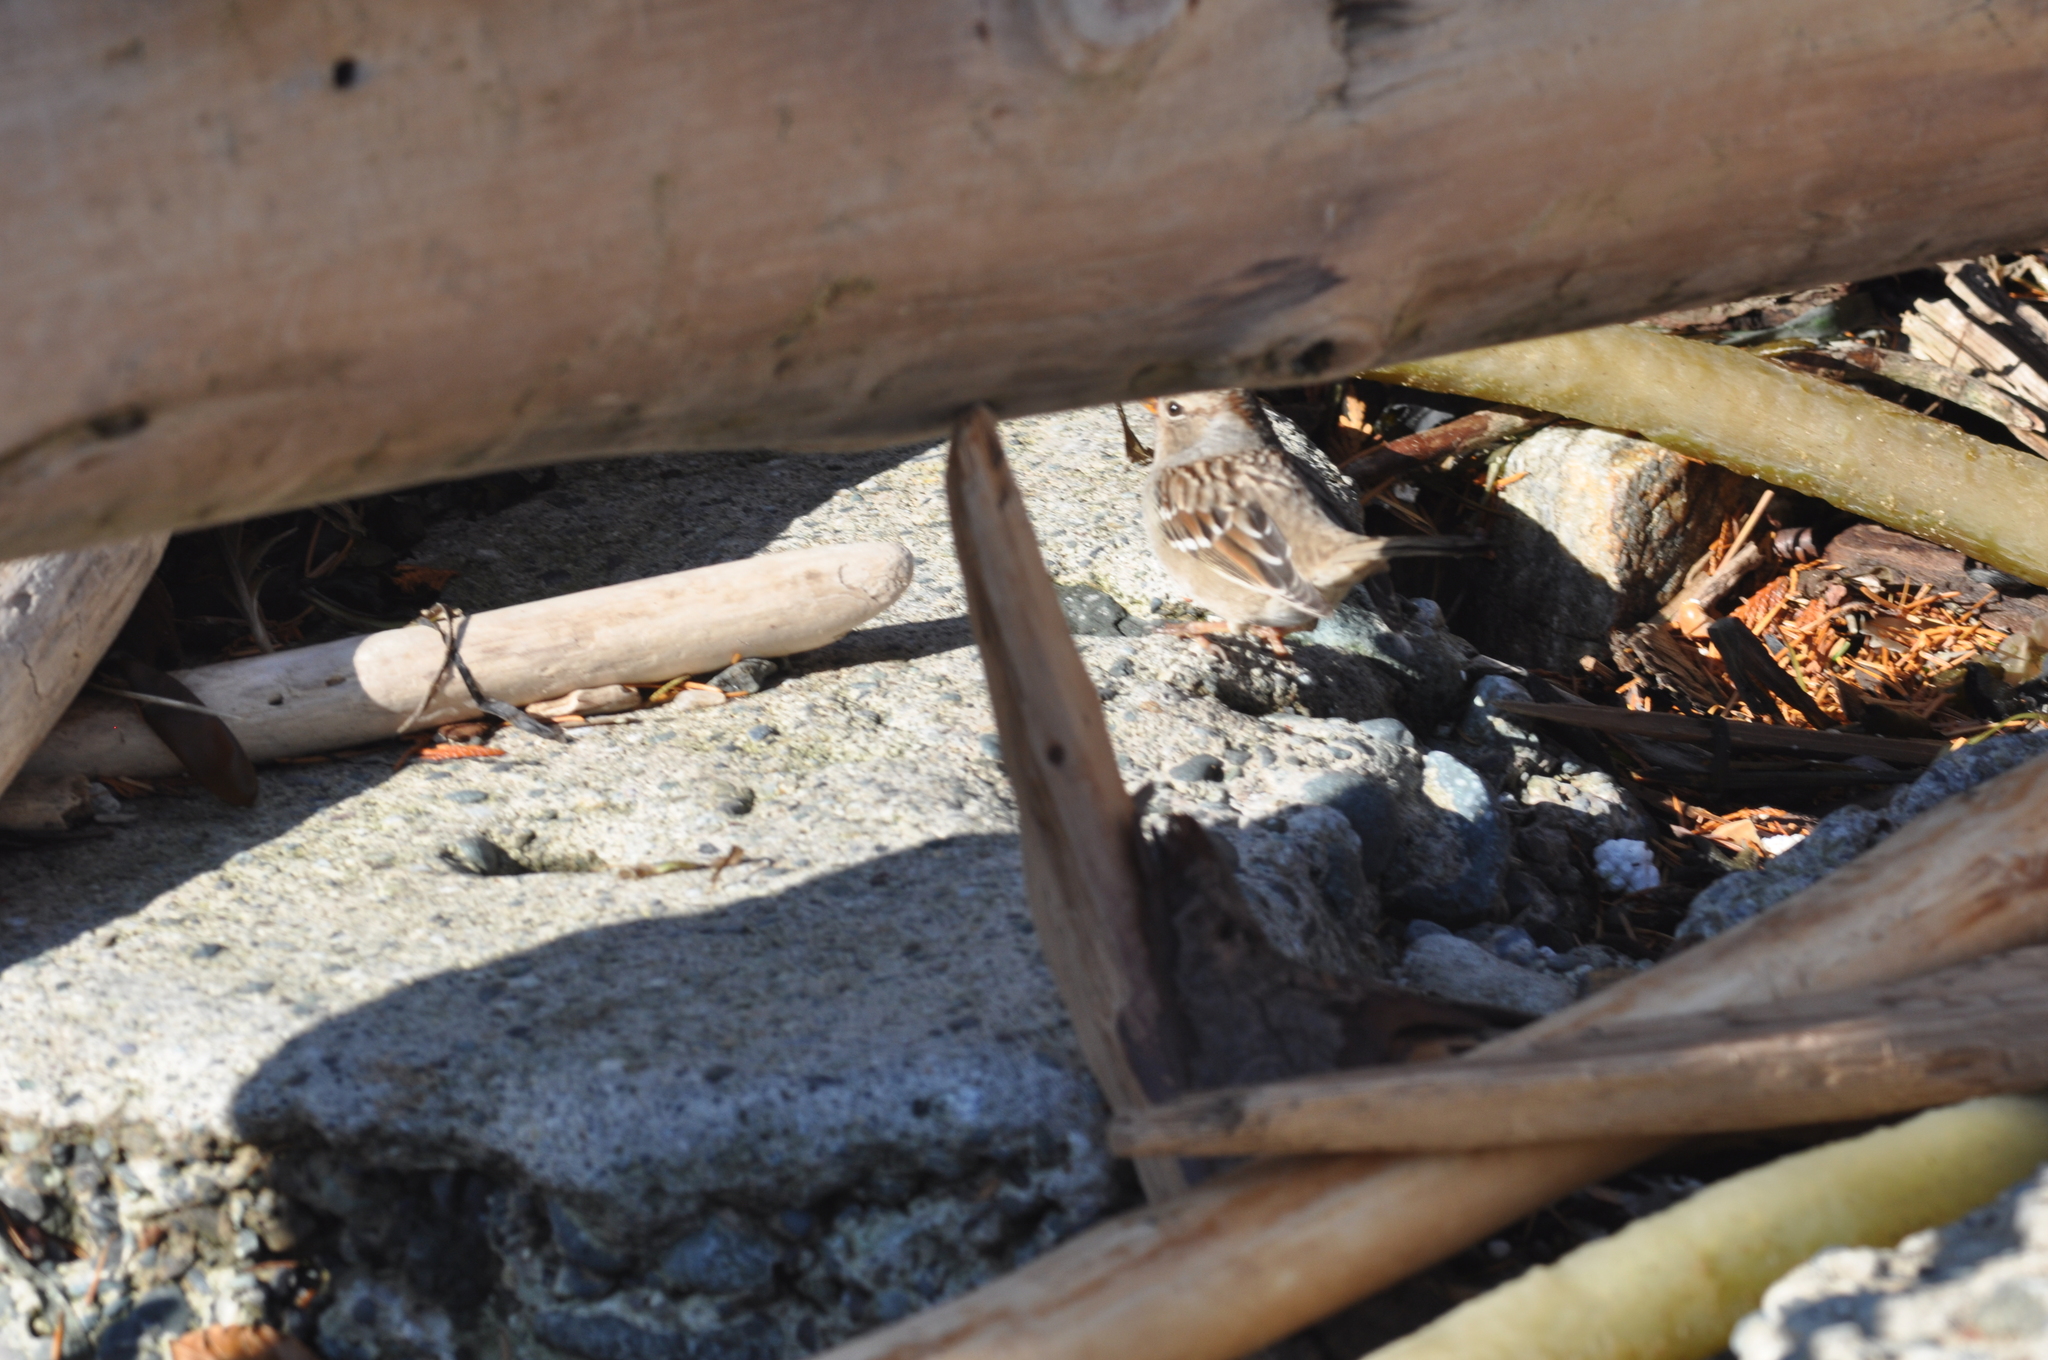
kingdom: Animalia
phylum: Chordata
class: Aves
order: Passeriformes
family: Passerellidae
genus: Zonotrichia
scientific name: Zonotrichia leucophrys
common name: White-crowned sparrow
